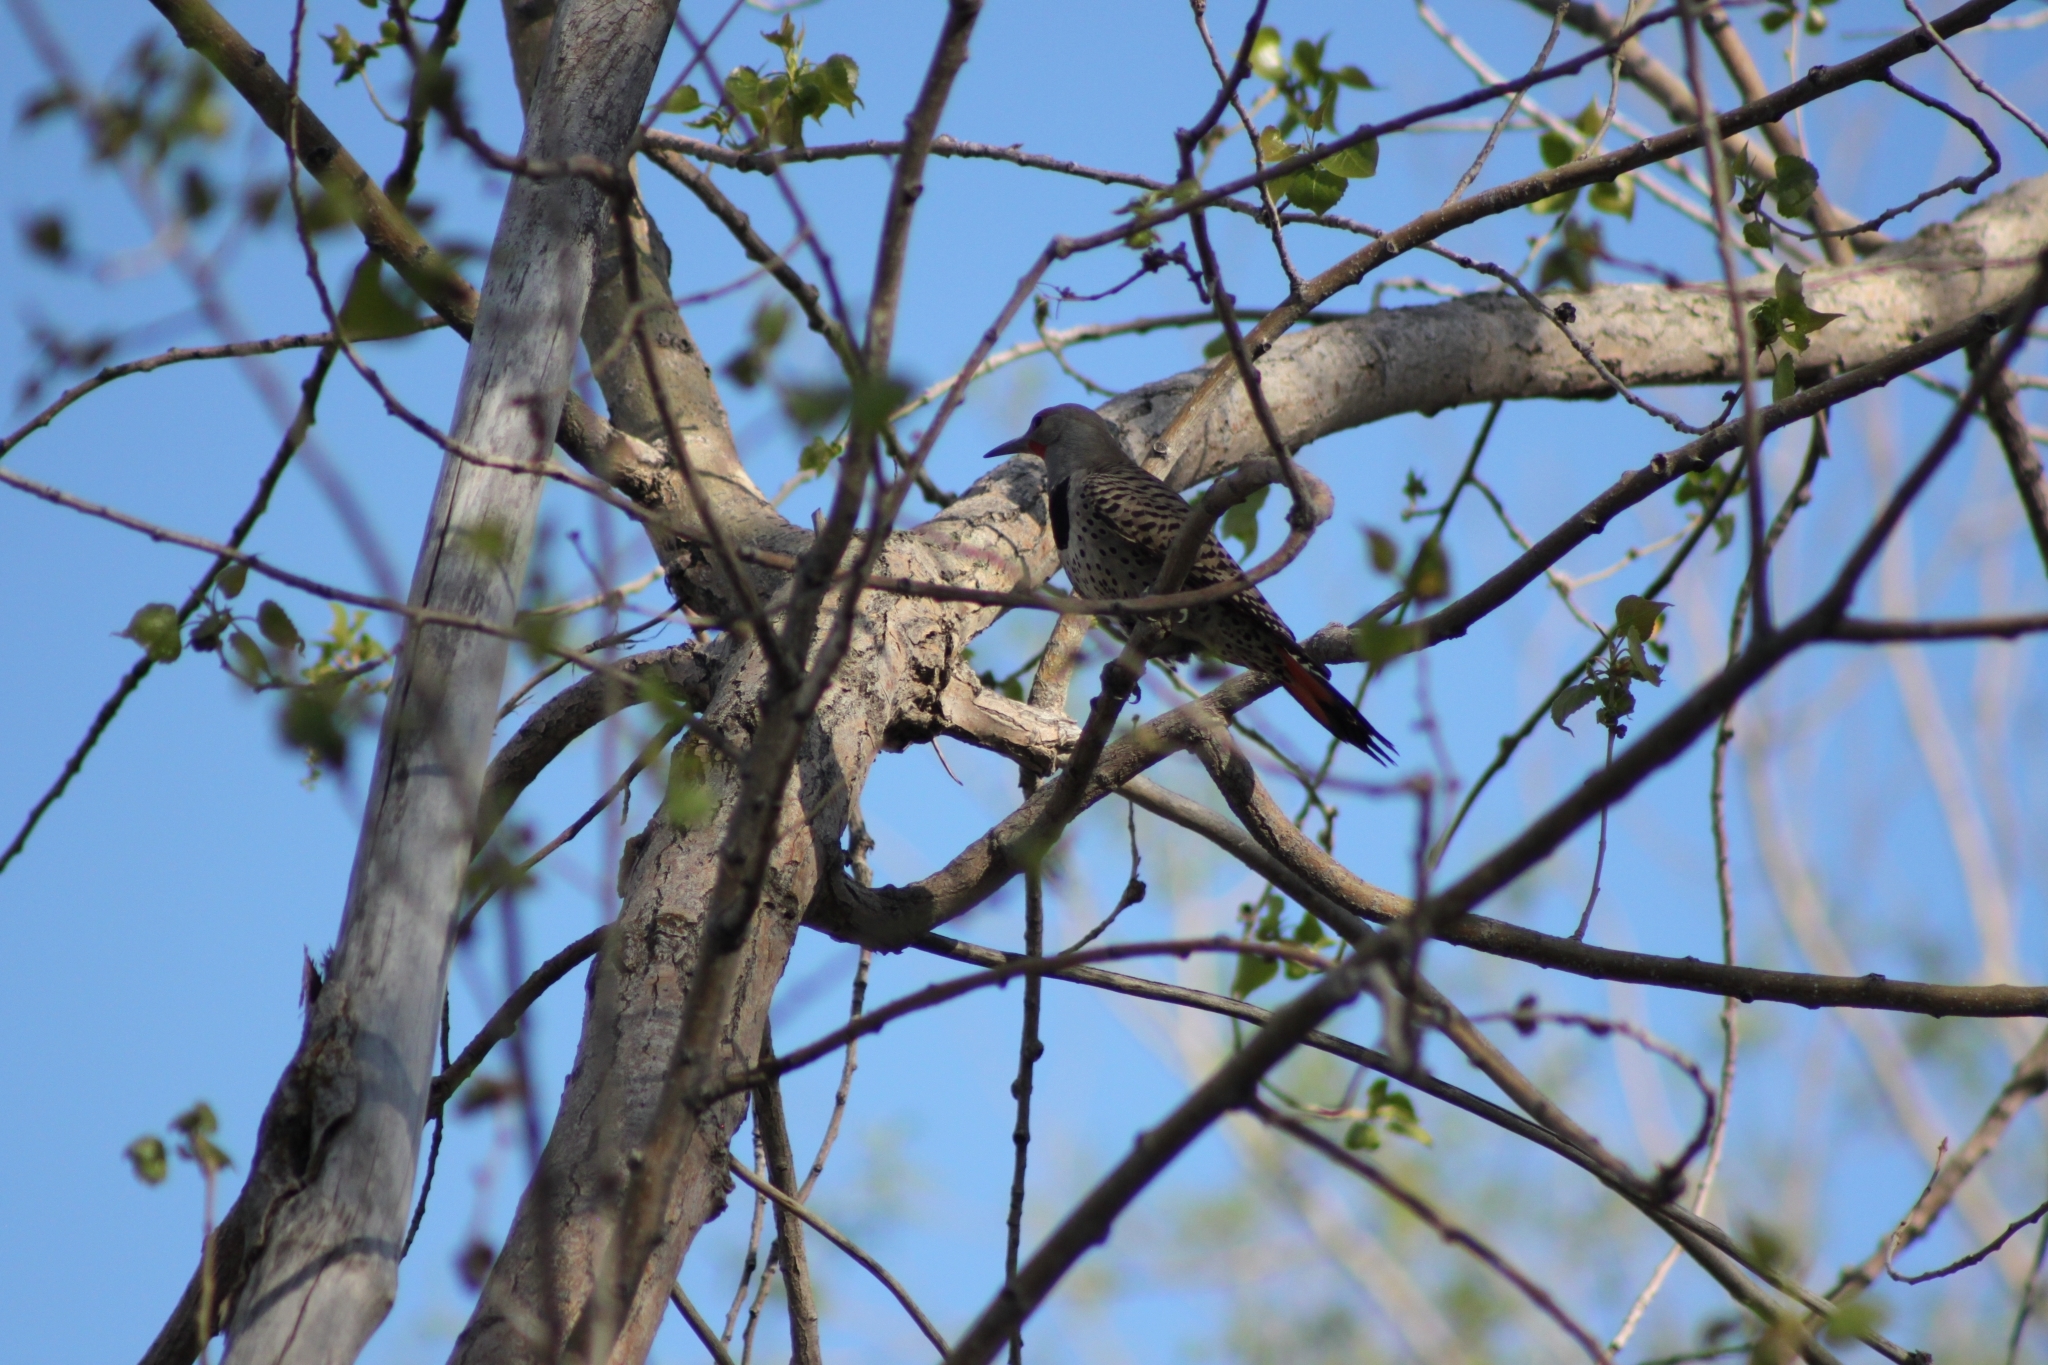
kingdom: Animalia
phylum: Chordata
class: Aves
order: Piciformes
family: Picidae
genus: Colaptes
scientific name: Colaptes auratus
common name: Northern flicker
